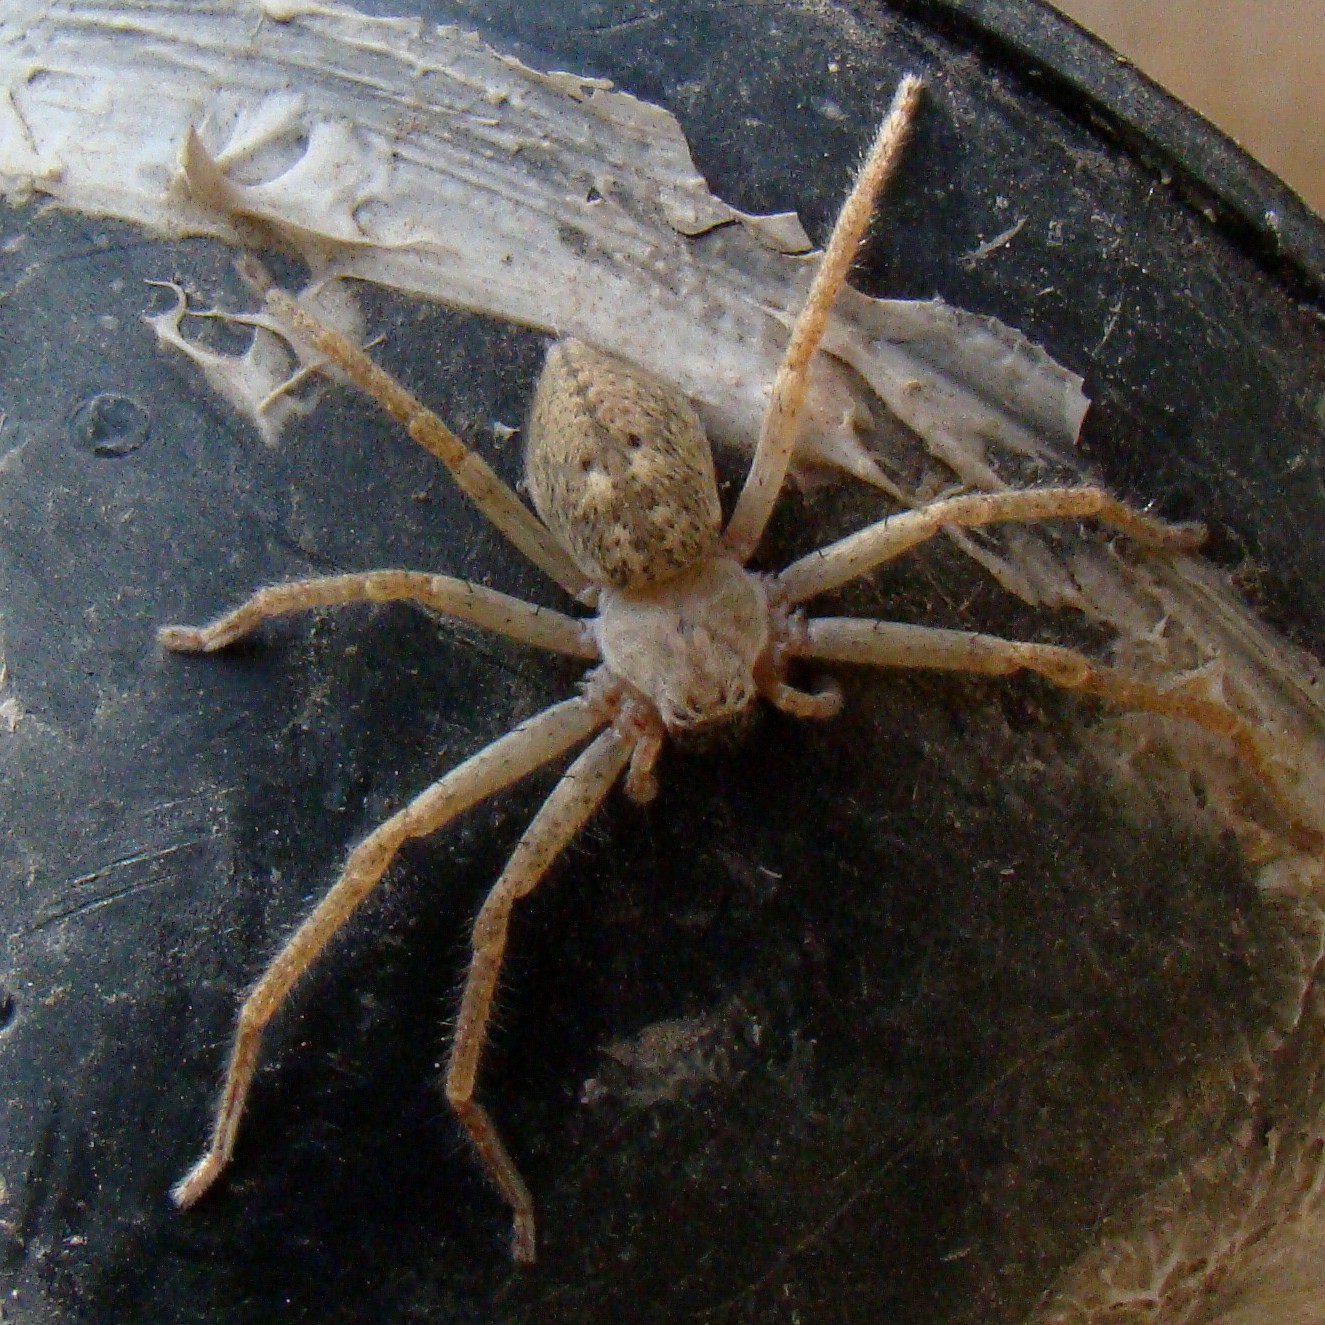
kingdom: Animalia
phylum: Arthropoda
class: Arachnida
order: Araneae
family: Sparassidae
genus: Olios
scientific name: Olios sericeus
